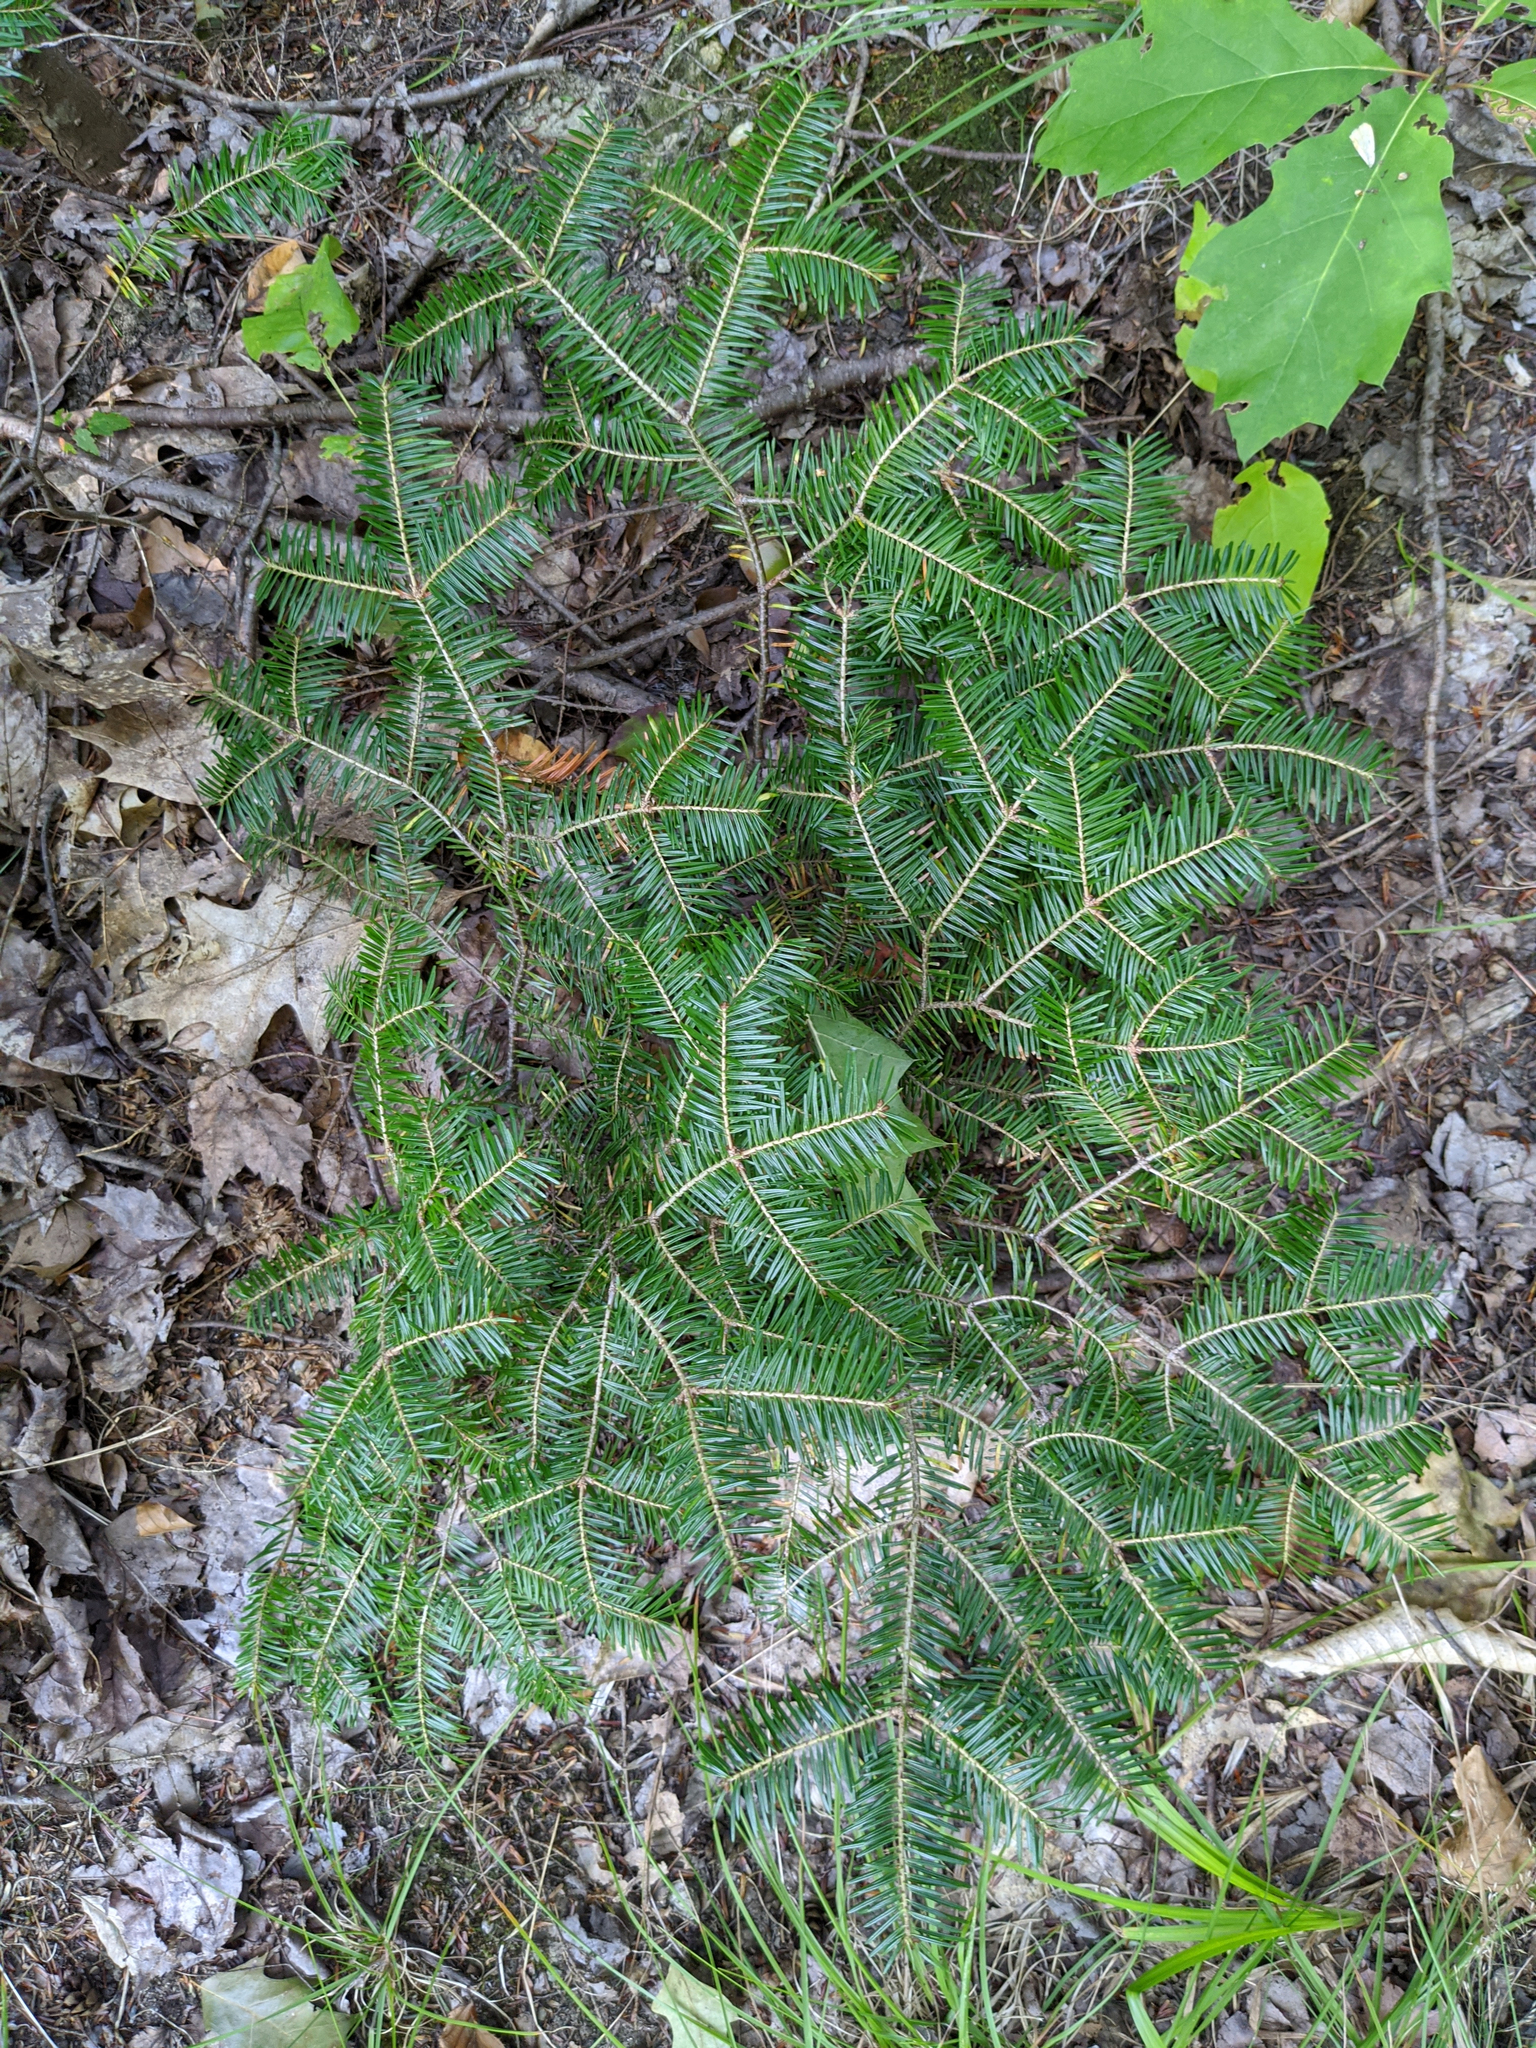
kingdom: Plantae
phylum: Tracheophyta
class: Pinopsida
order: Pinales
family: Pinaceae
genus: Abies
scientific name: Abies balsamea
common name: Balsam fir
